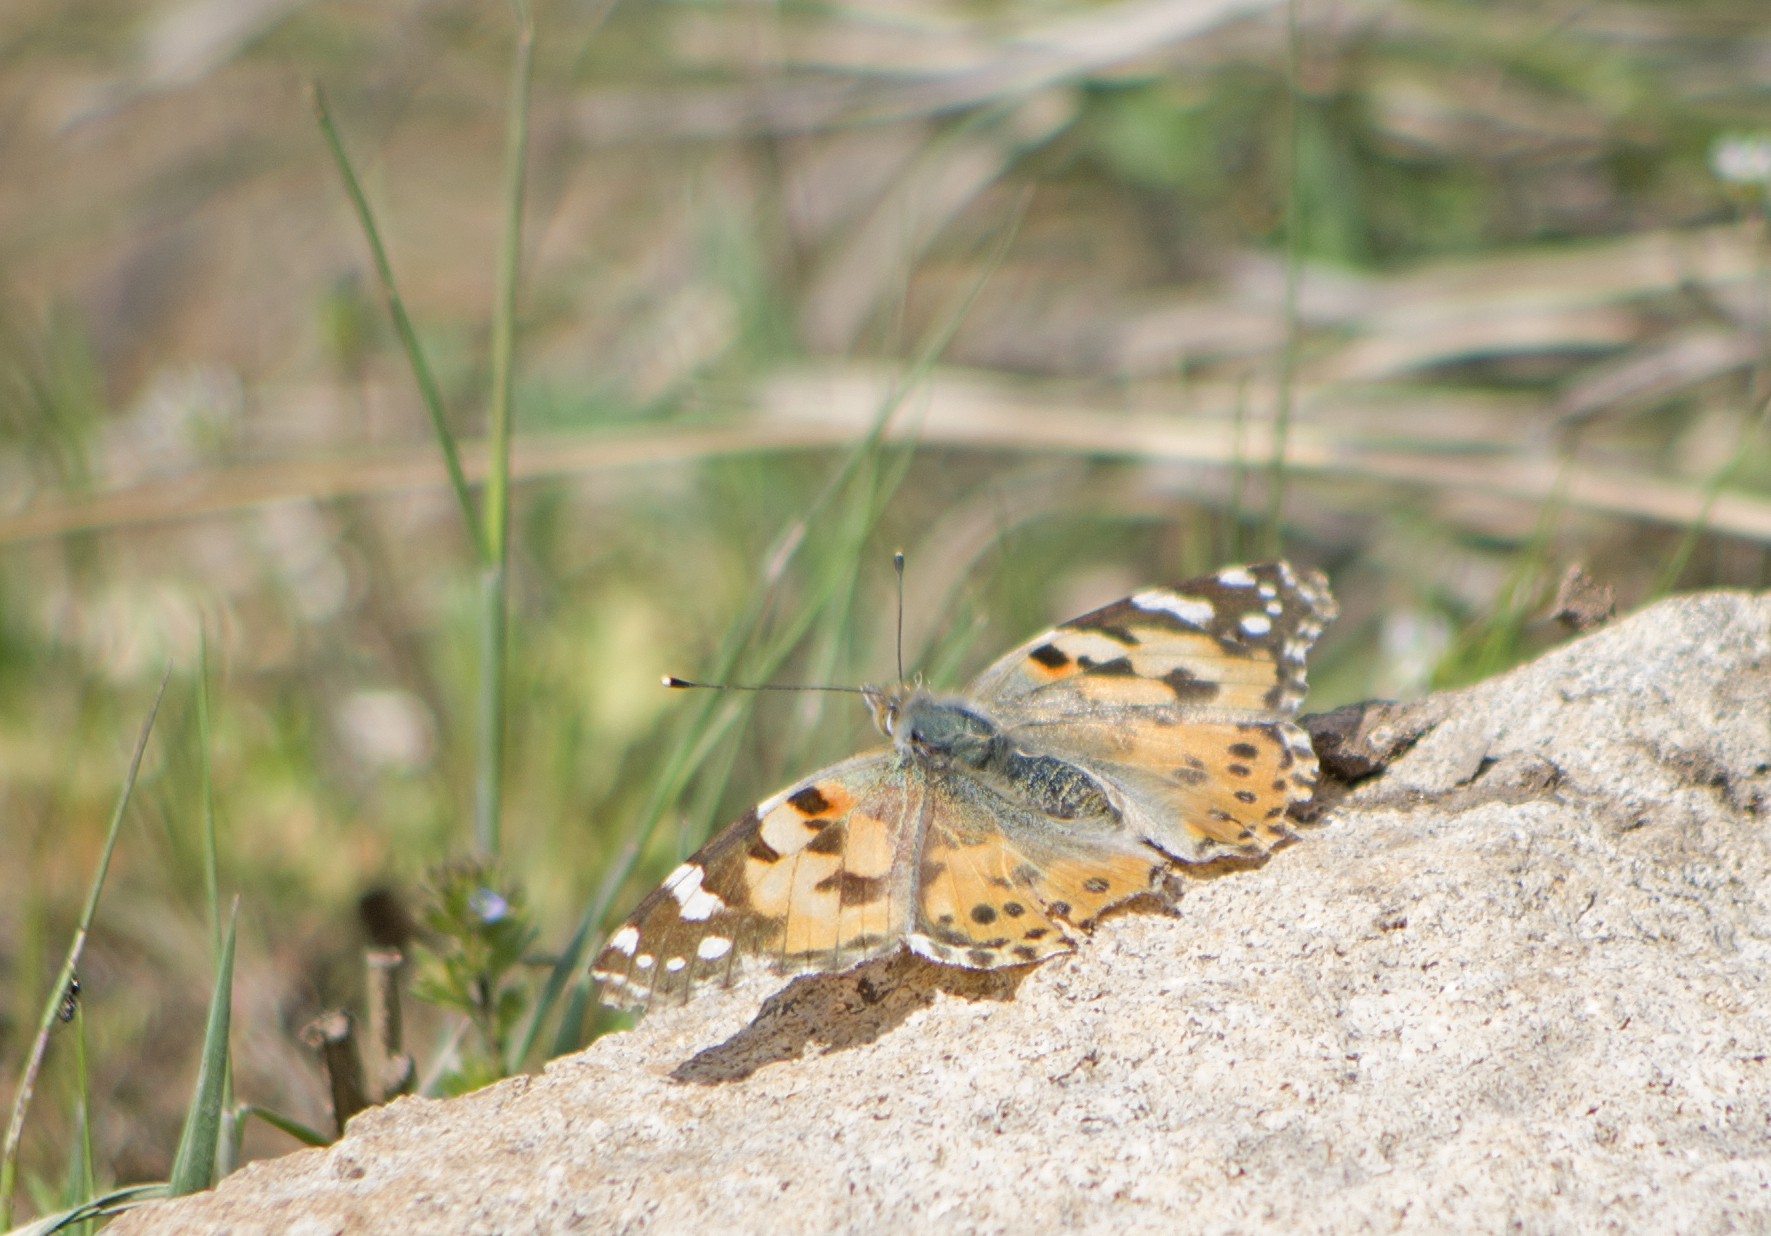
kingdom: Animalia
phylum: Arthropoda
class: Insecta
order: Lepidoptera
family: Nymphalidae
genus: Vanessa
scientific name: Vanessa cardui
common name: Painted lady
